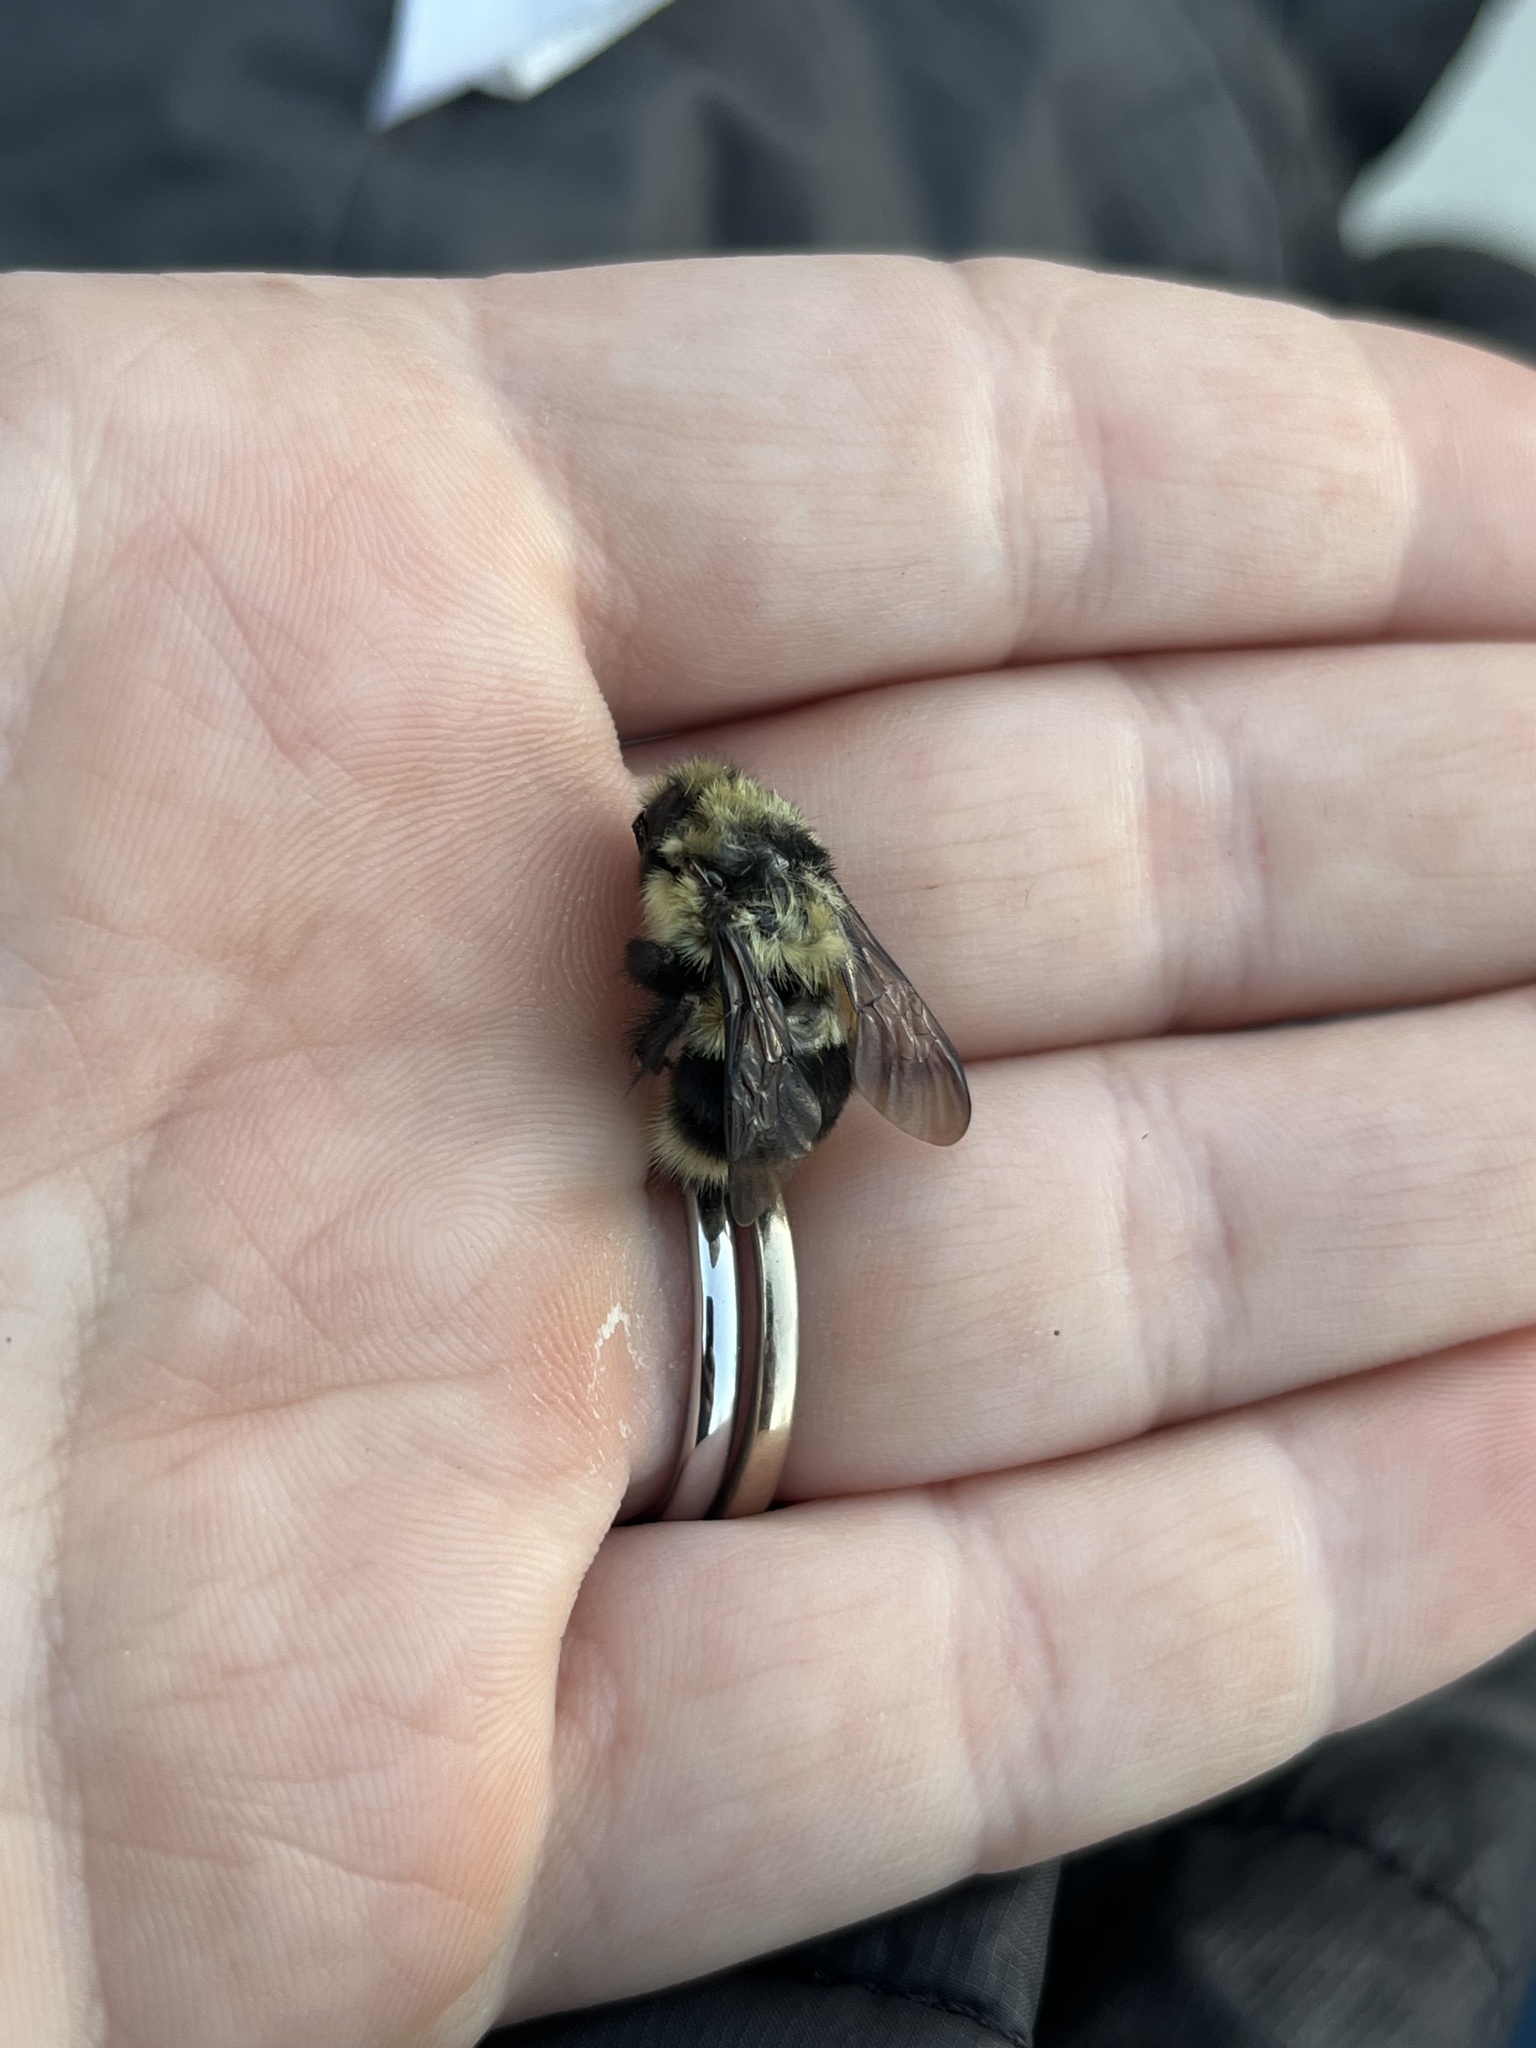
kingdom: Animalia
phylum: Arthropoda
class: Insecta
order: Hymenoptera
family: Apidae
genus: Bombus
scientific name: Bombus melanopygus
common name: Black tail bumble bee
